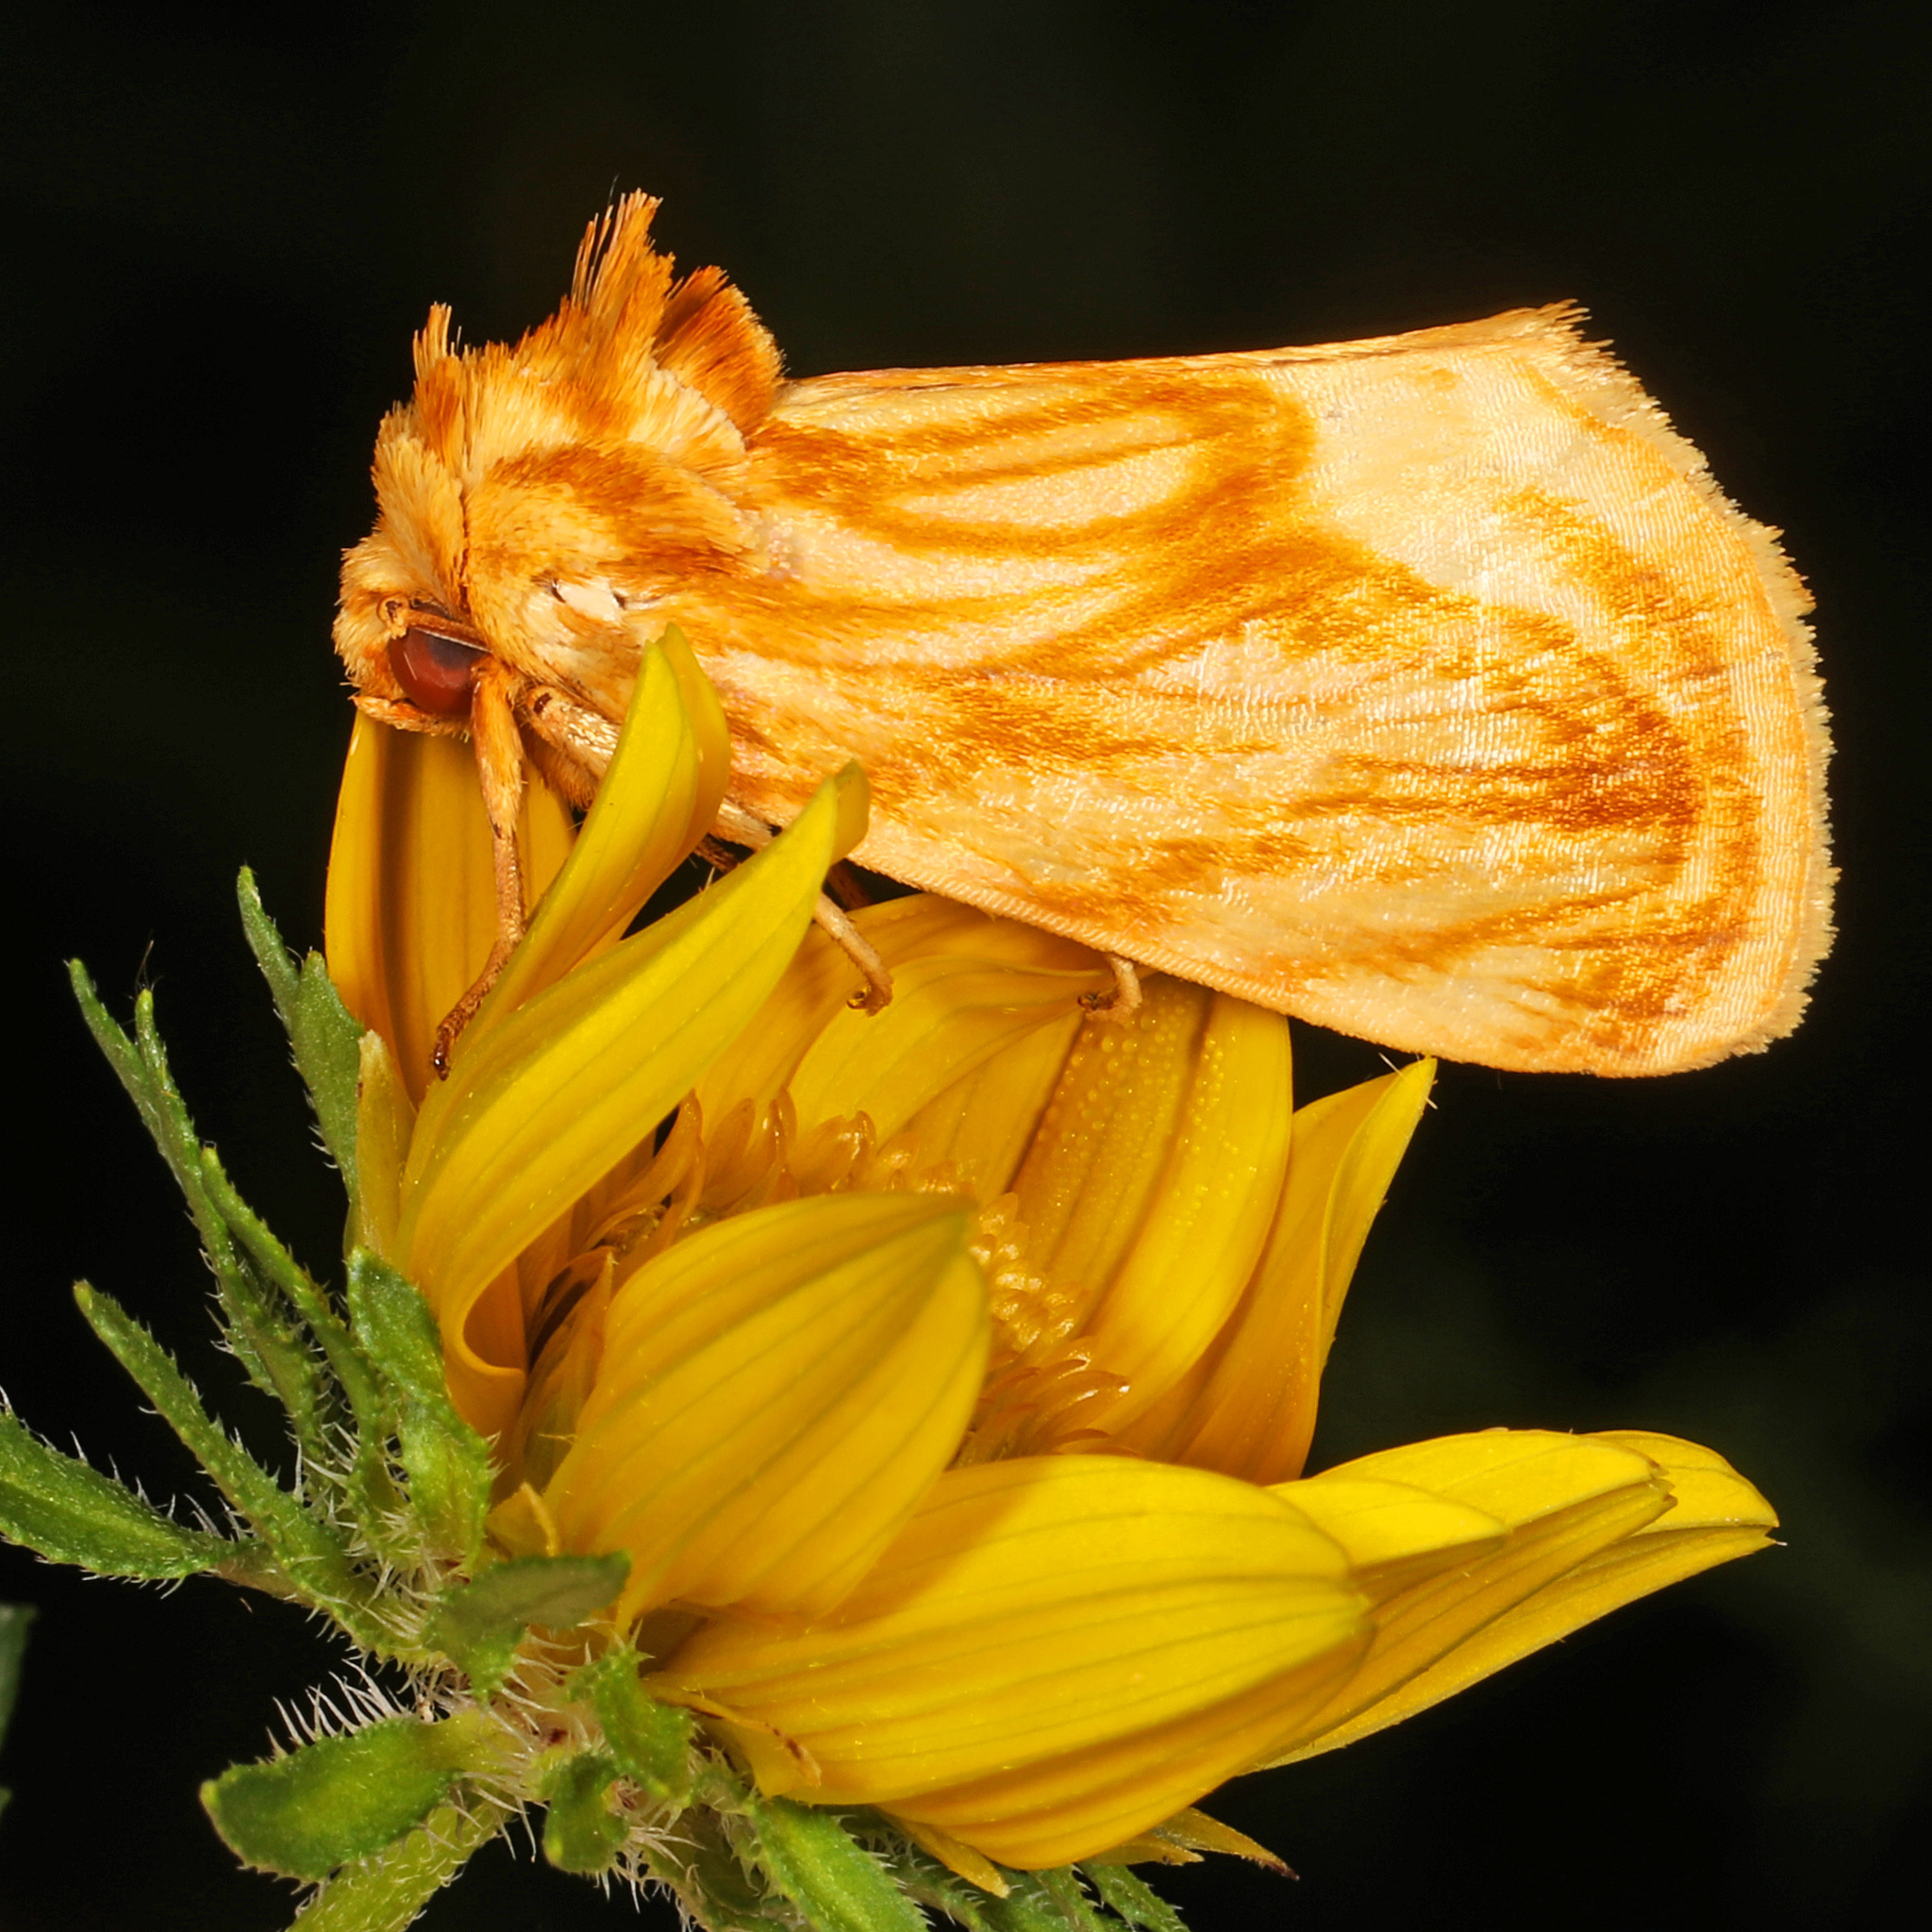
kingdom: Animalia
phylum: Arthropoda
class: Insecta
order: Lepidoptera
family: Noctuidae
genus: Cirrhophanus
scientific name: Cirrhophanus triangulifer
